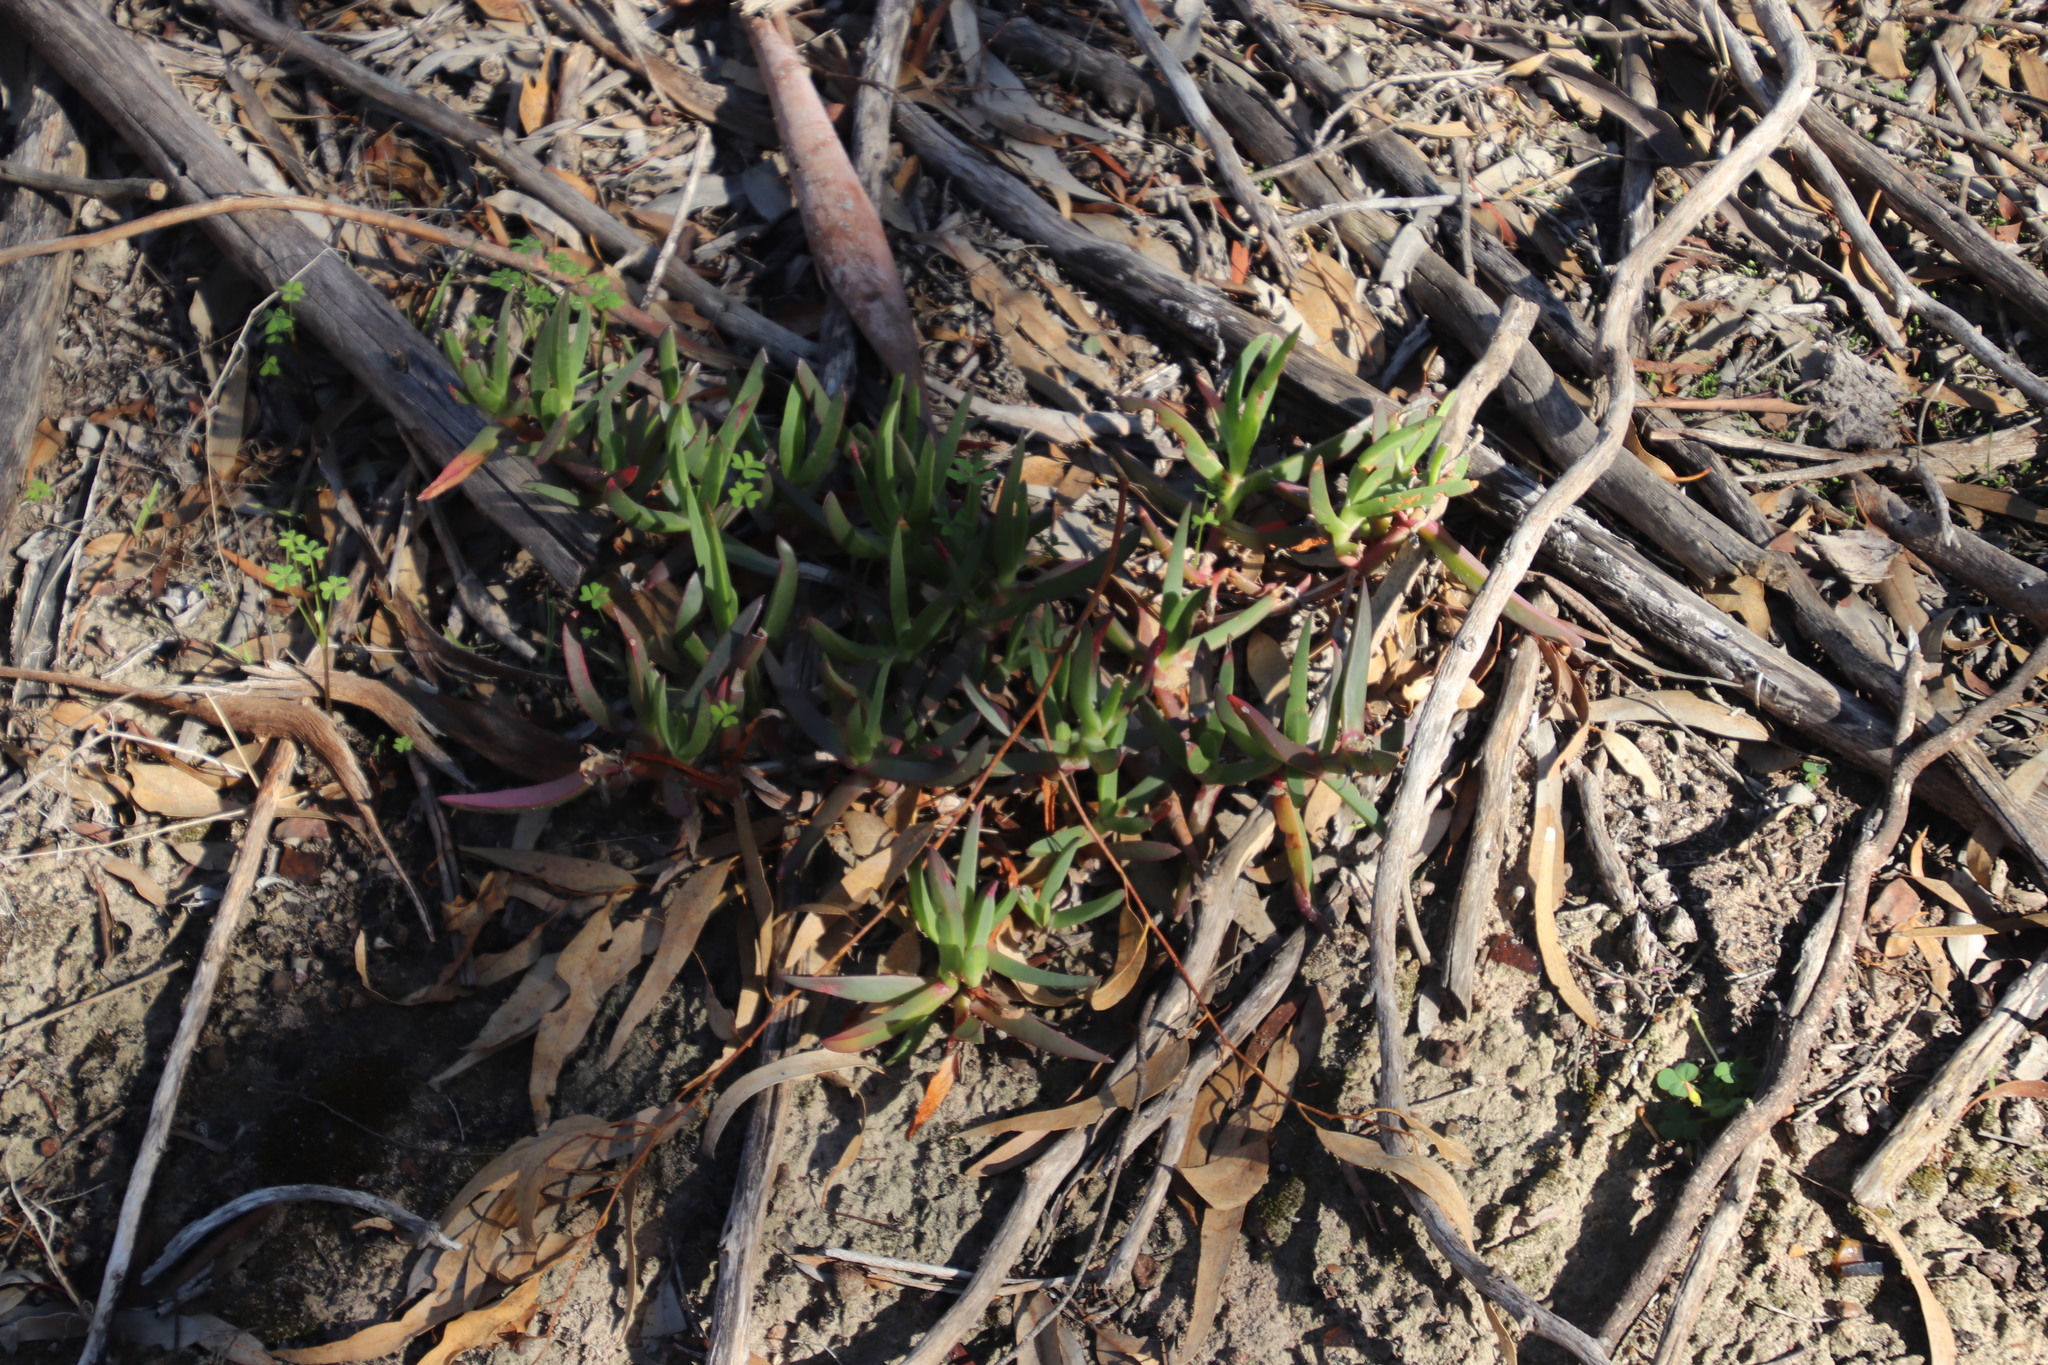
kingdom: Plantae
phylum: Tracheophyta
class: Magnoliopsida
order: Caryophyllales
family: Aizoaceae
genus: Carpobrotus
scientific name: Carpobrotus edulis
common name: Hottentot-fig
